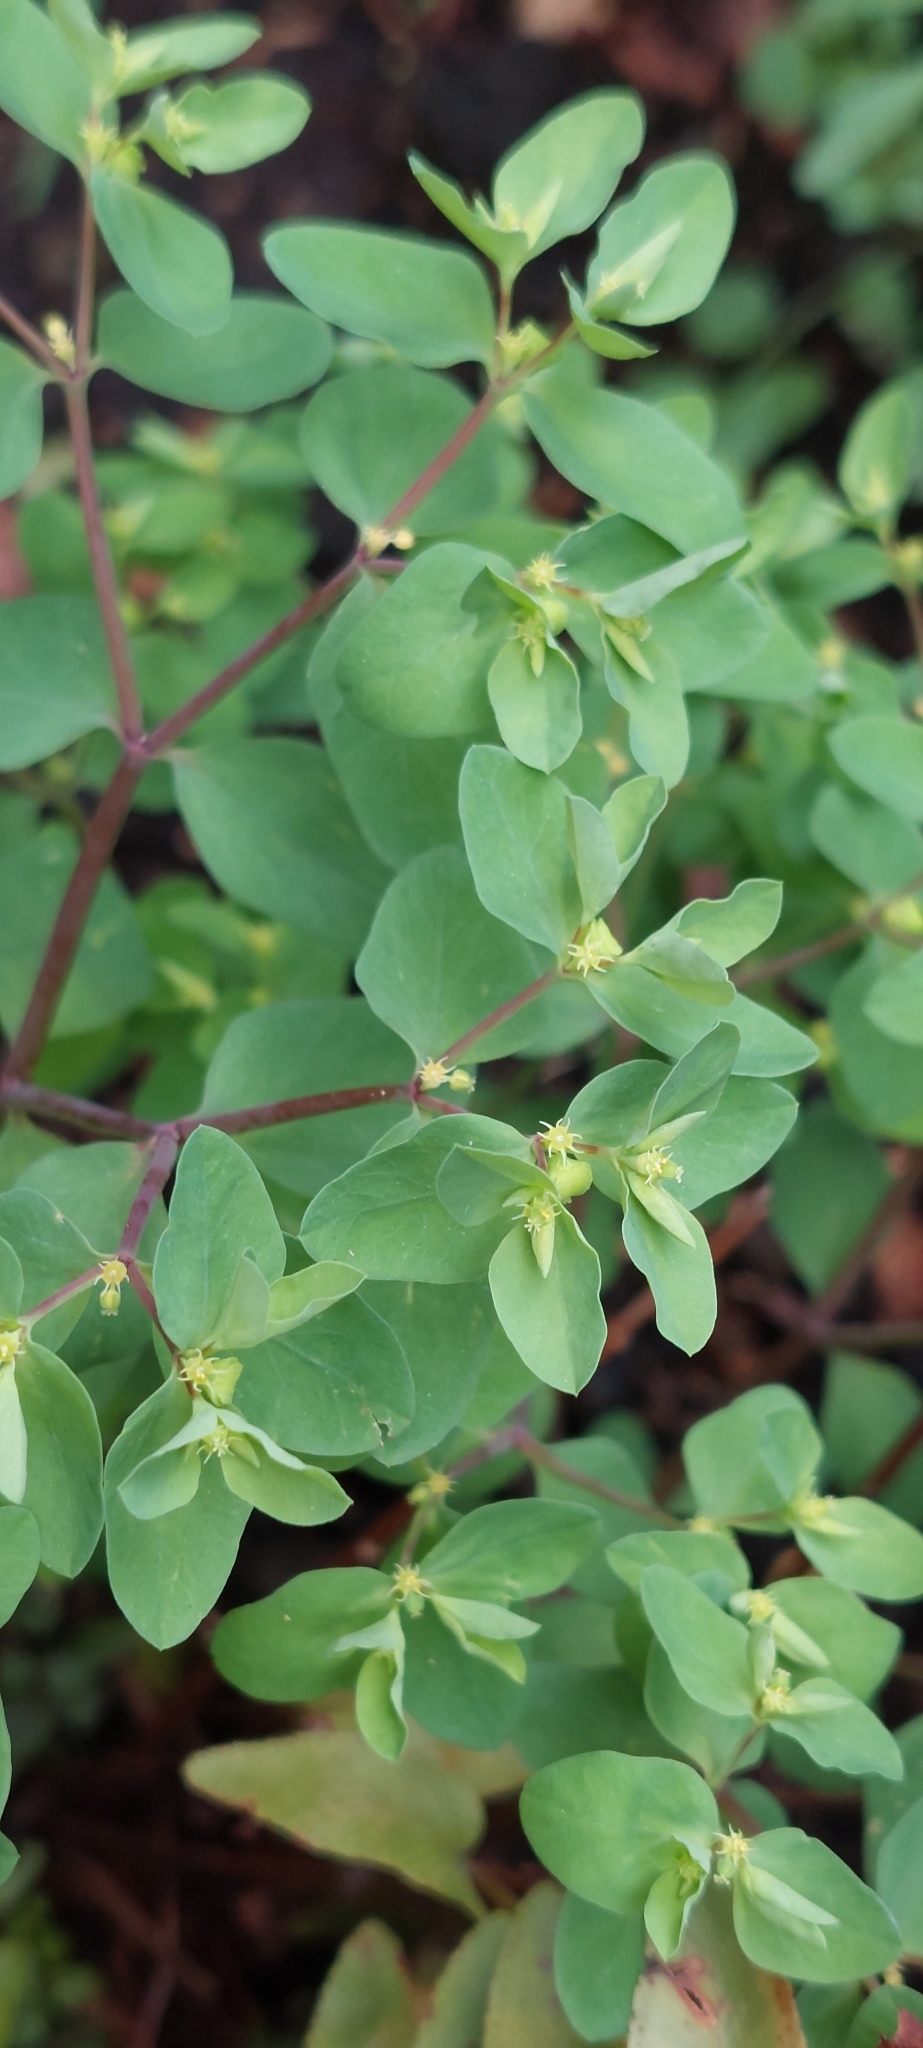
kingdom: Plantae
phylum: Tracheophyta
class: Magnoliopsida
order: Malpighiales
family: Euphorbiaceae
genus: Euphorbia
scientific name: Euphorbia peplus
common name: Petty spurge
